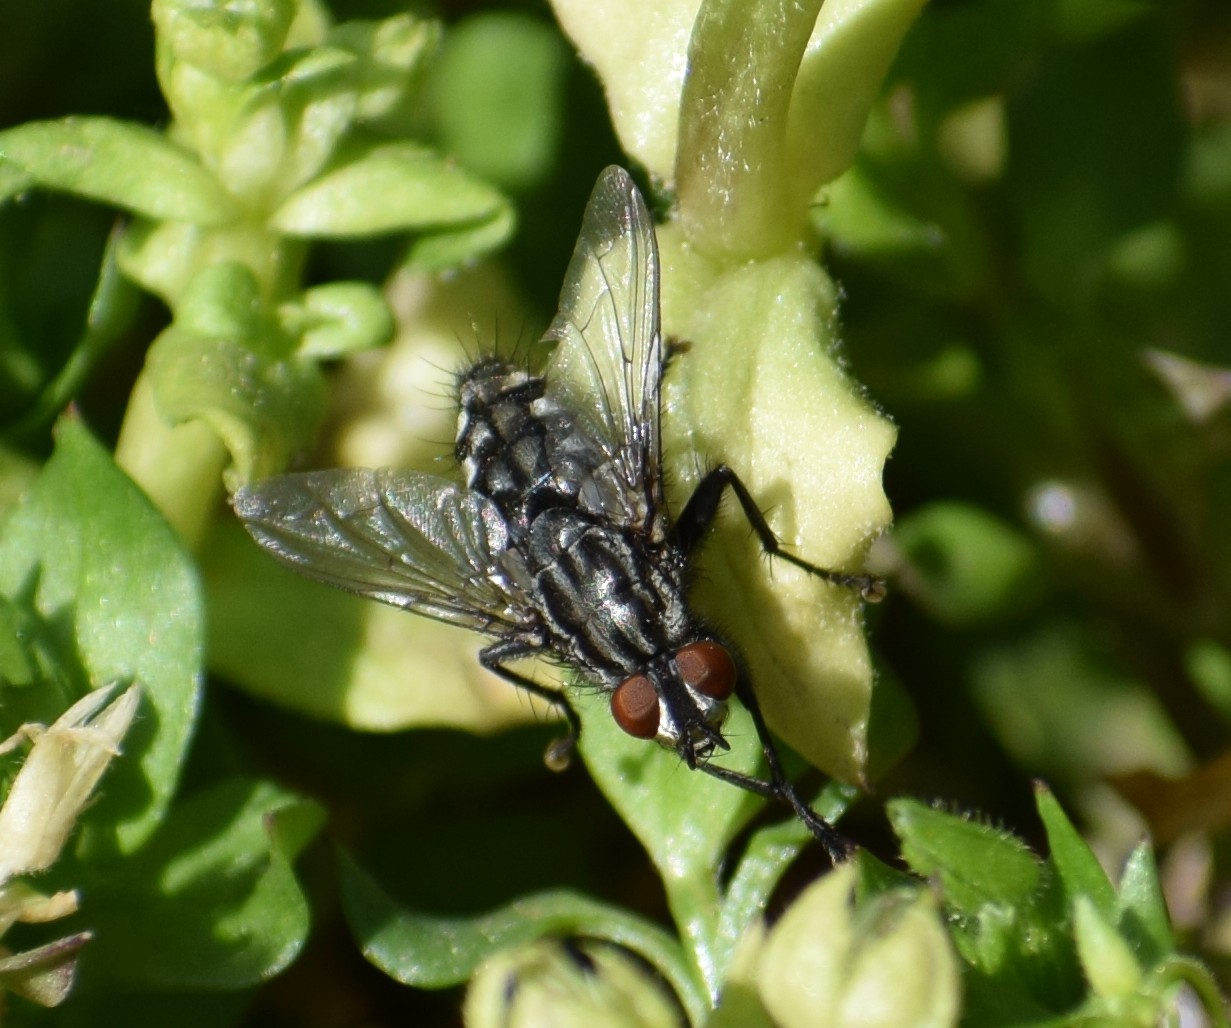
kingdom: Animalia
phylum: Arthropoda
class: Insecta
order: Diptera
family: Sarcophagidae
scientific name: Sarcophagidae
